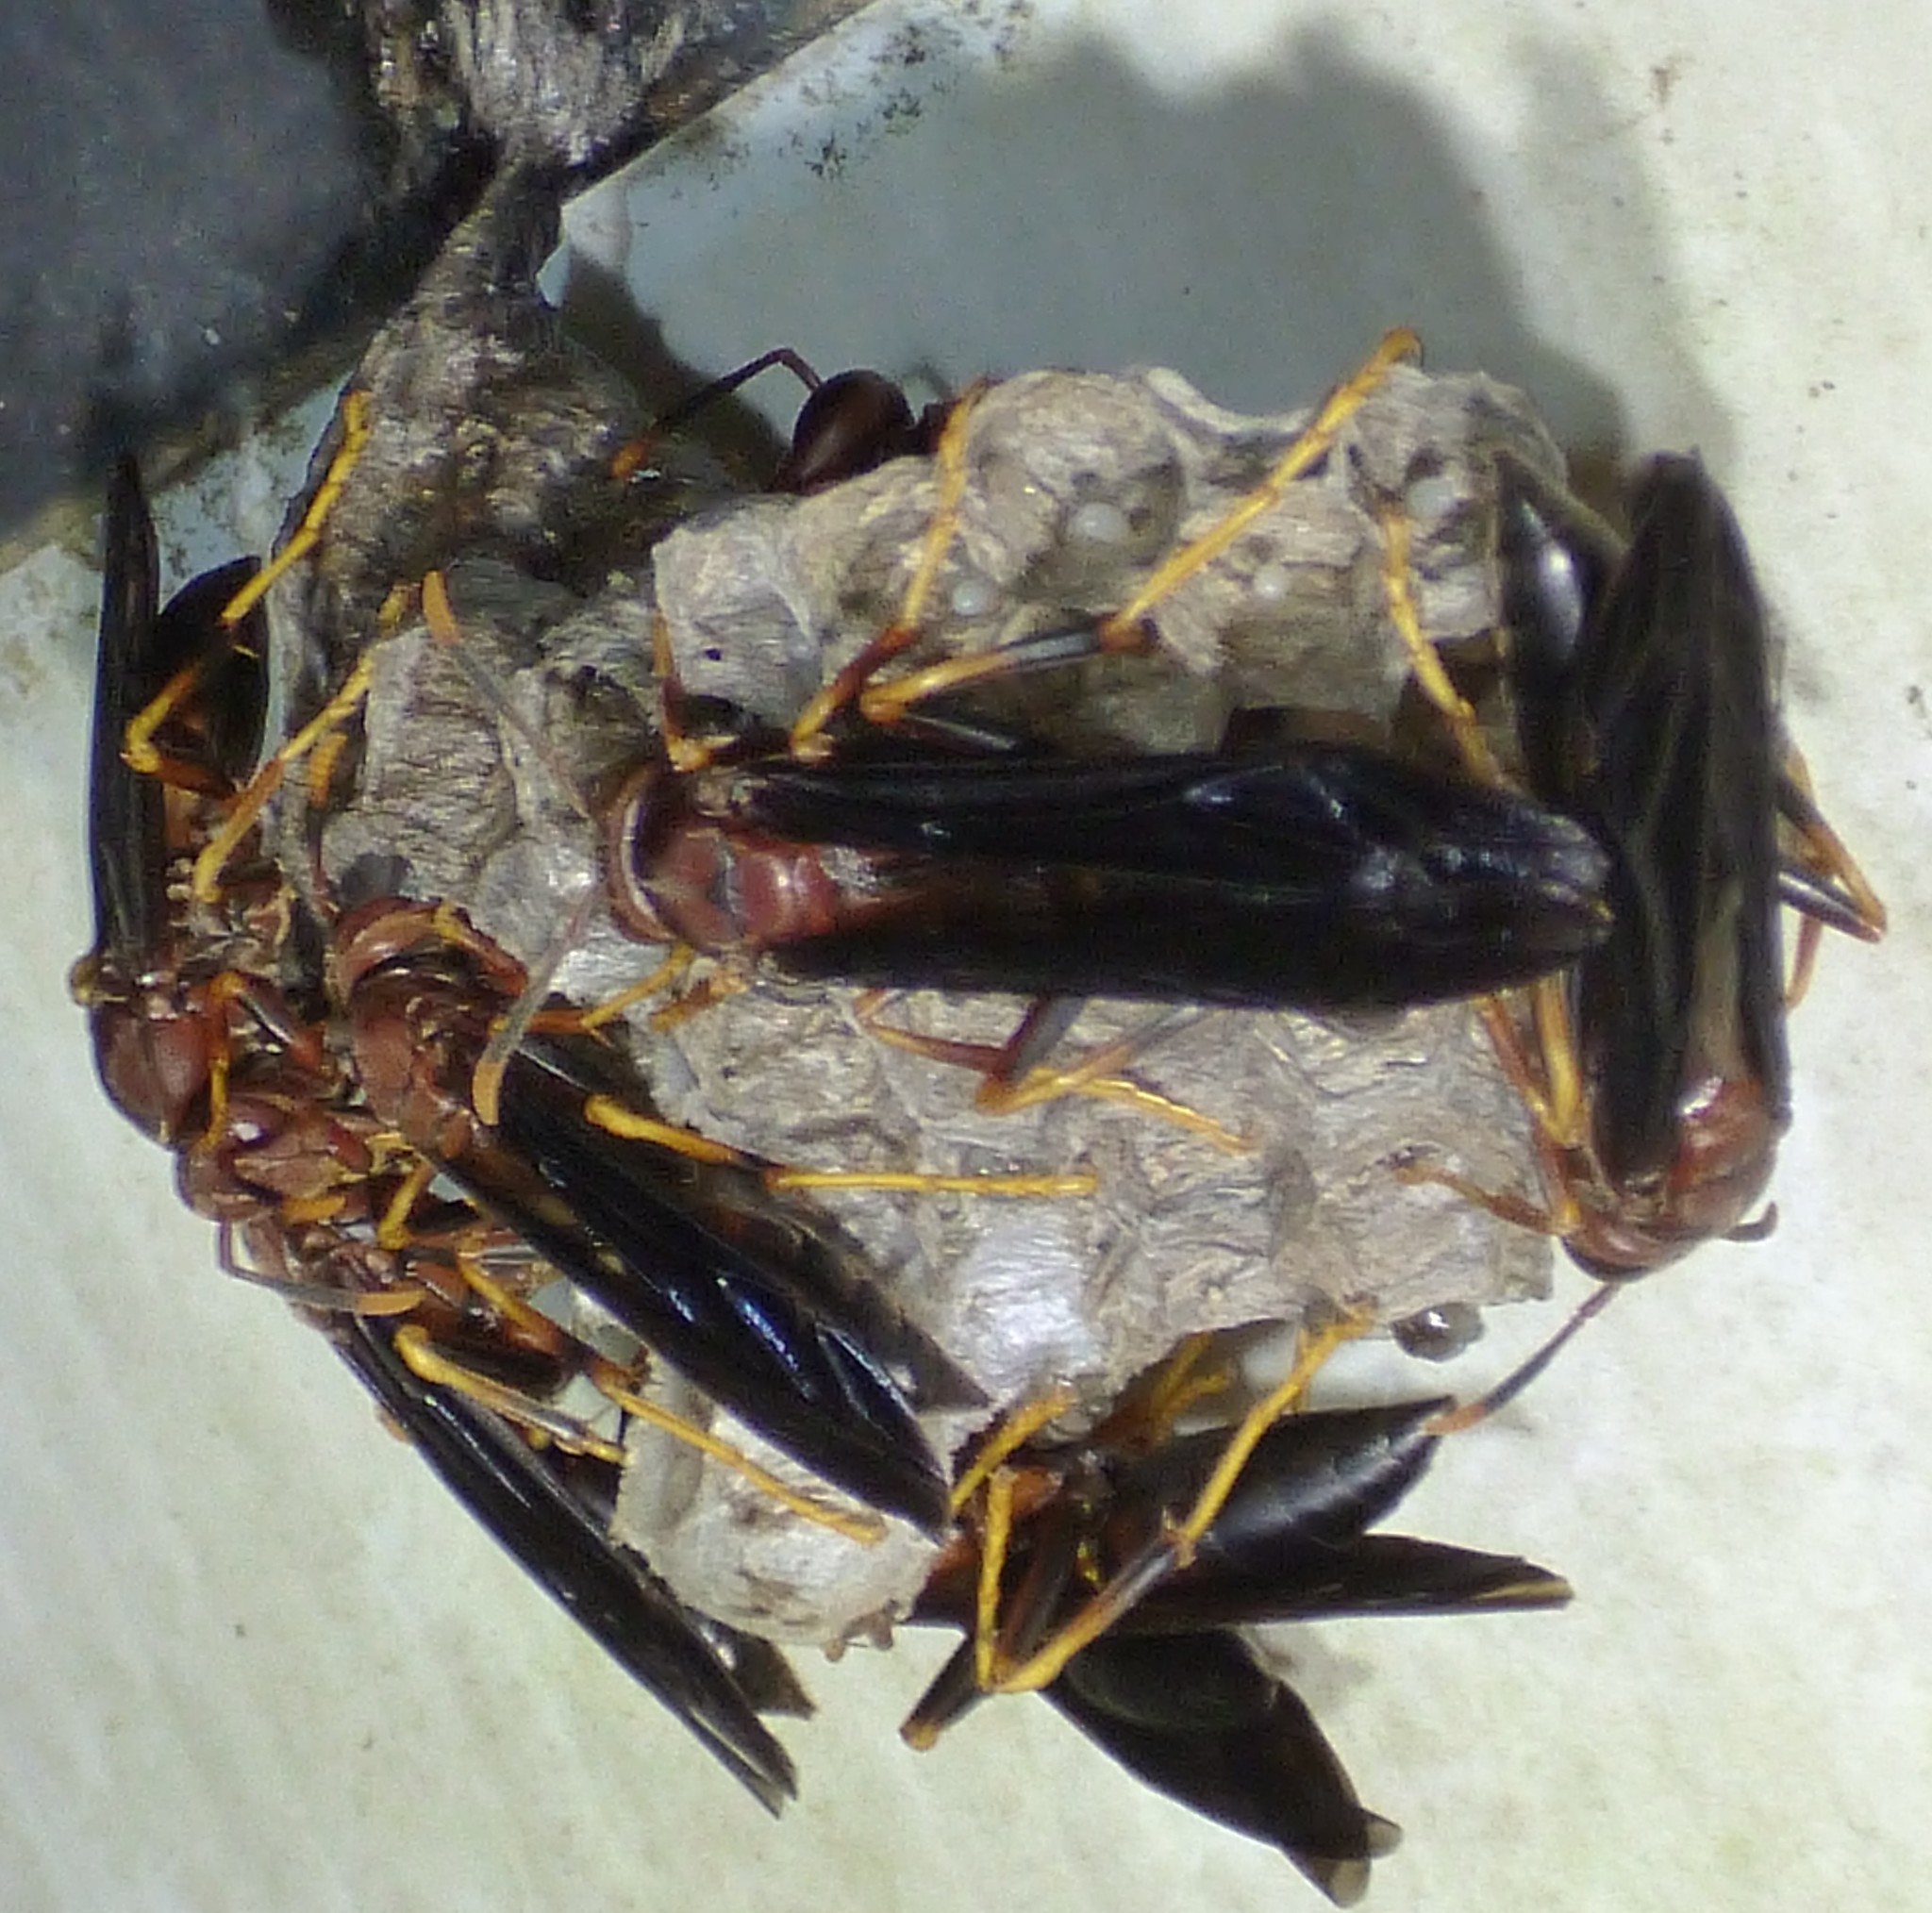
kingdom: Animalia
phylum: Arthropoda
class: Insecta
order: Hymenoptera
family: Eumenidae
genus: Polistes
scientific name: Polistes annularis
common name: Ringed paper wasp
